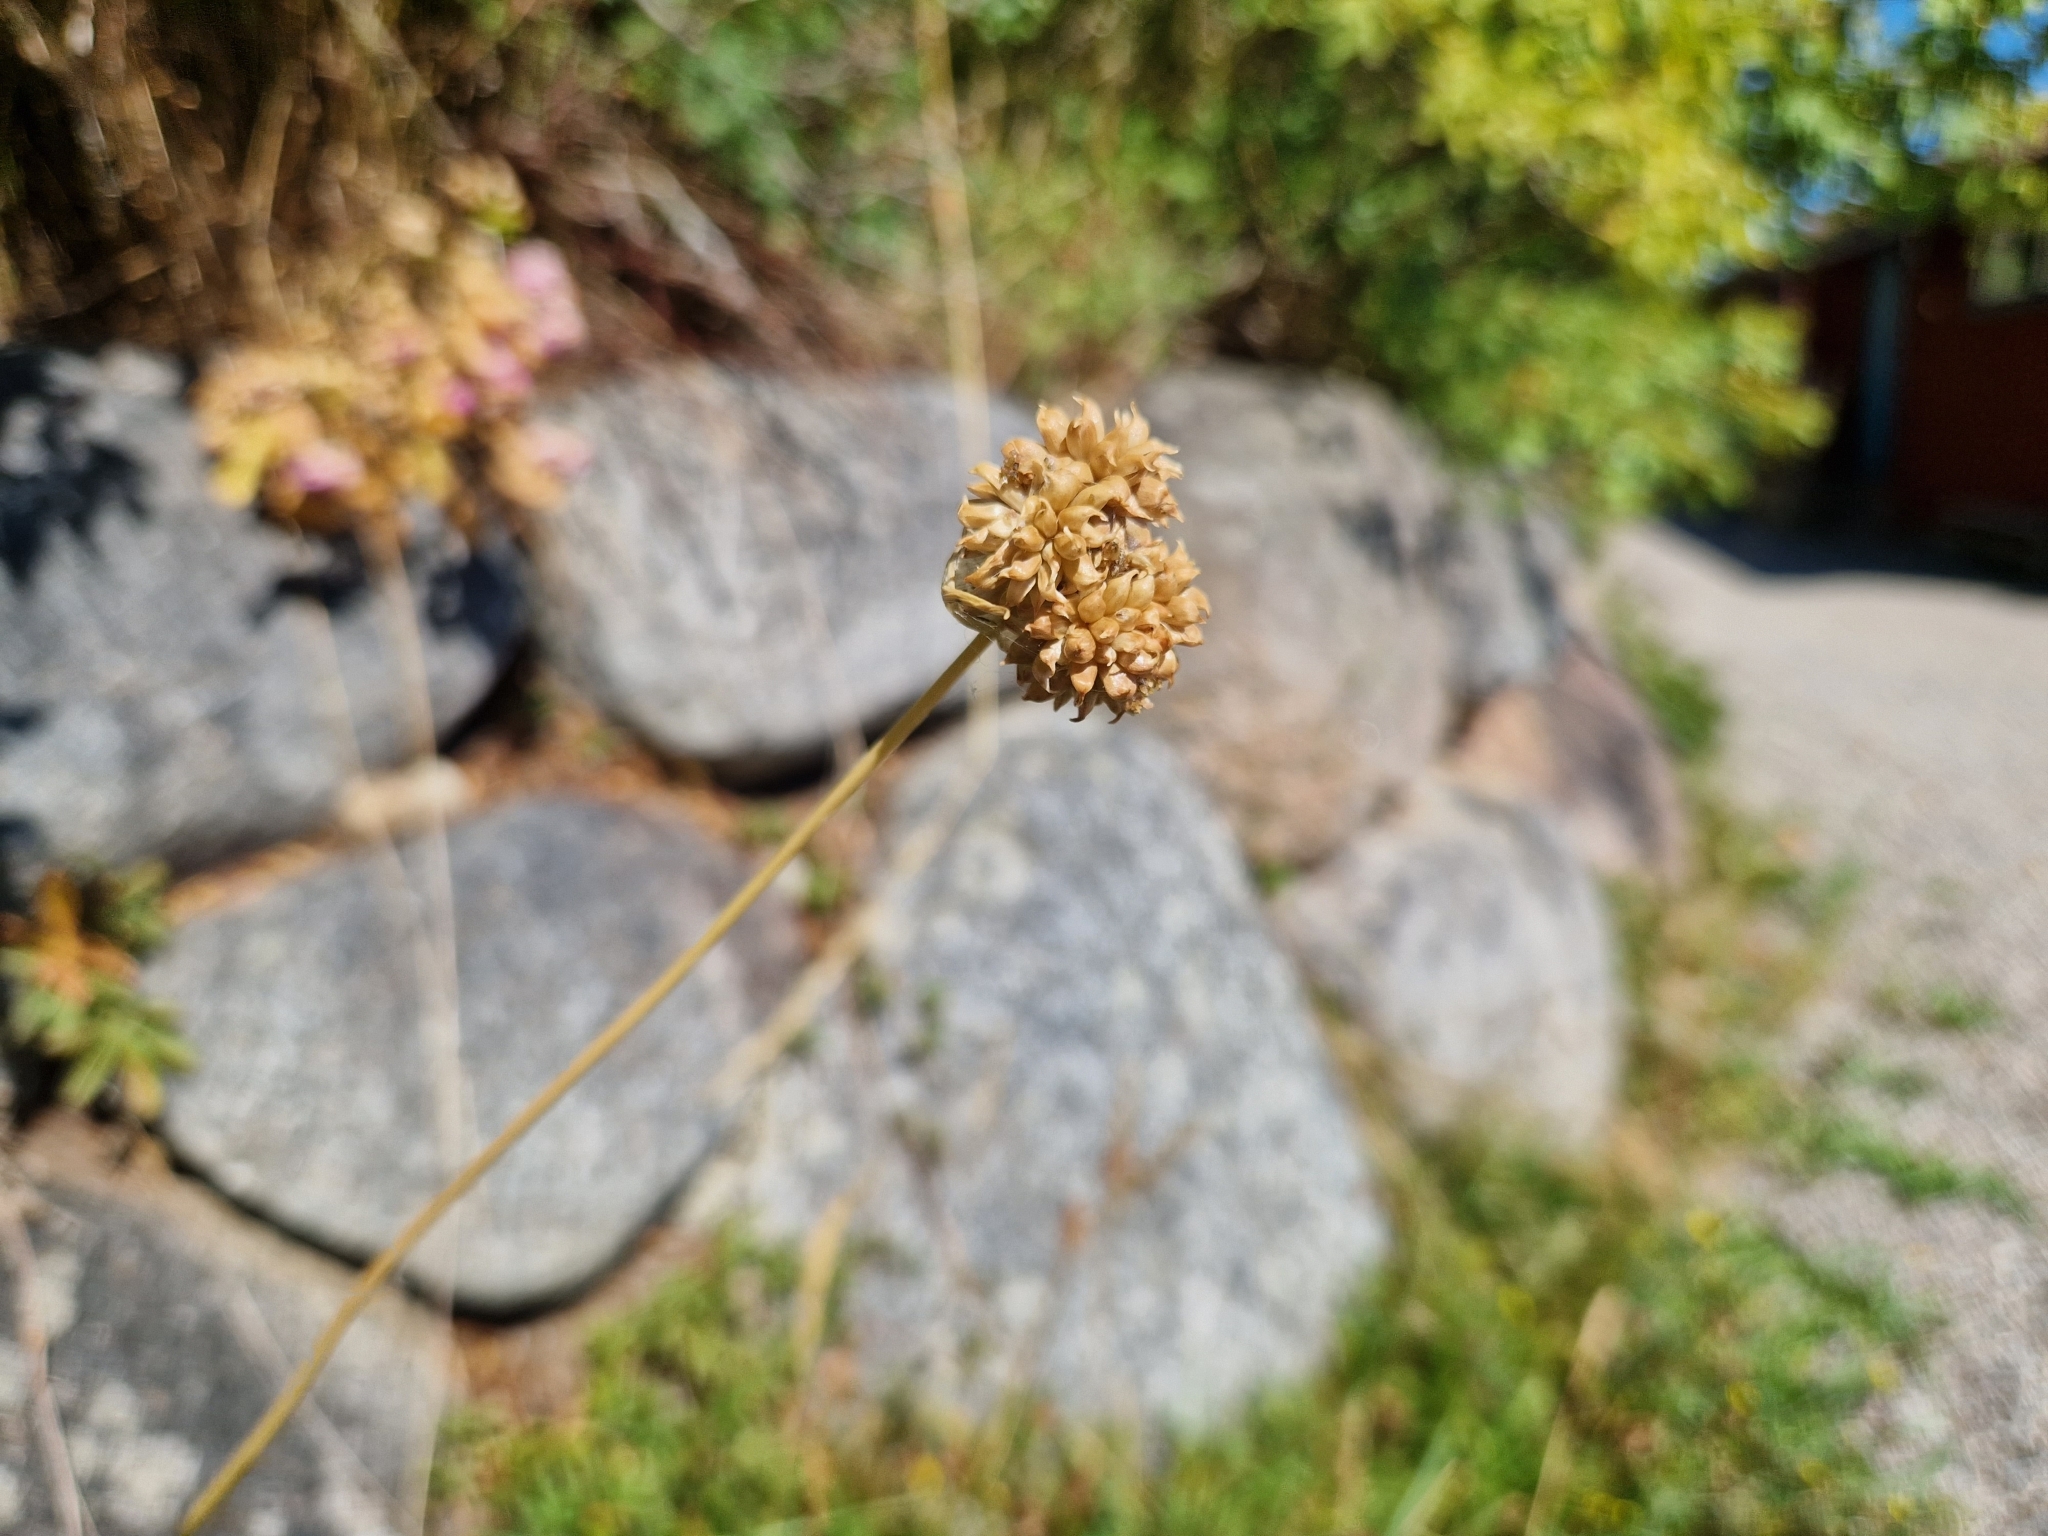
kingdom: Plantae
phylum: Tracheophyta
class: Liliopsida
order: Asparagales
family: Amaryllidaceae
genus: Allium
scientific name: Allium vineale
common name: Crow garlic
